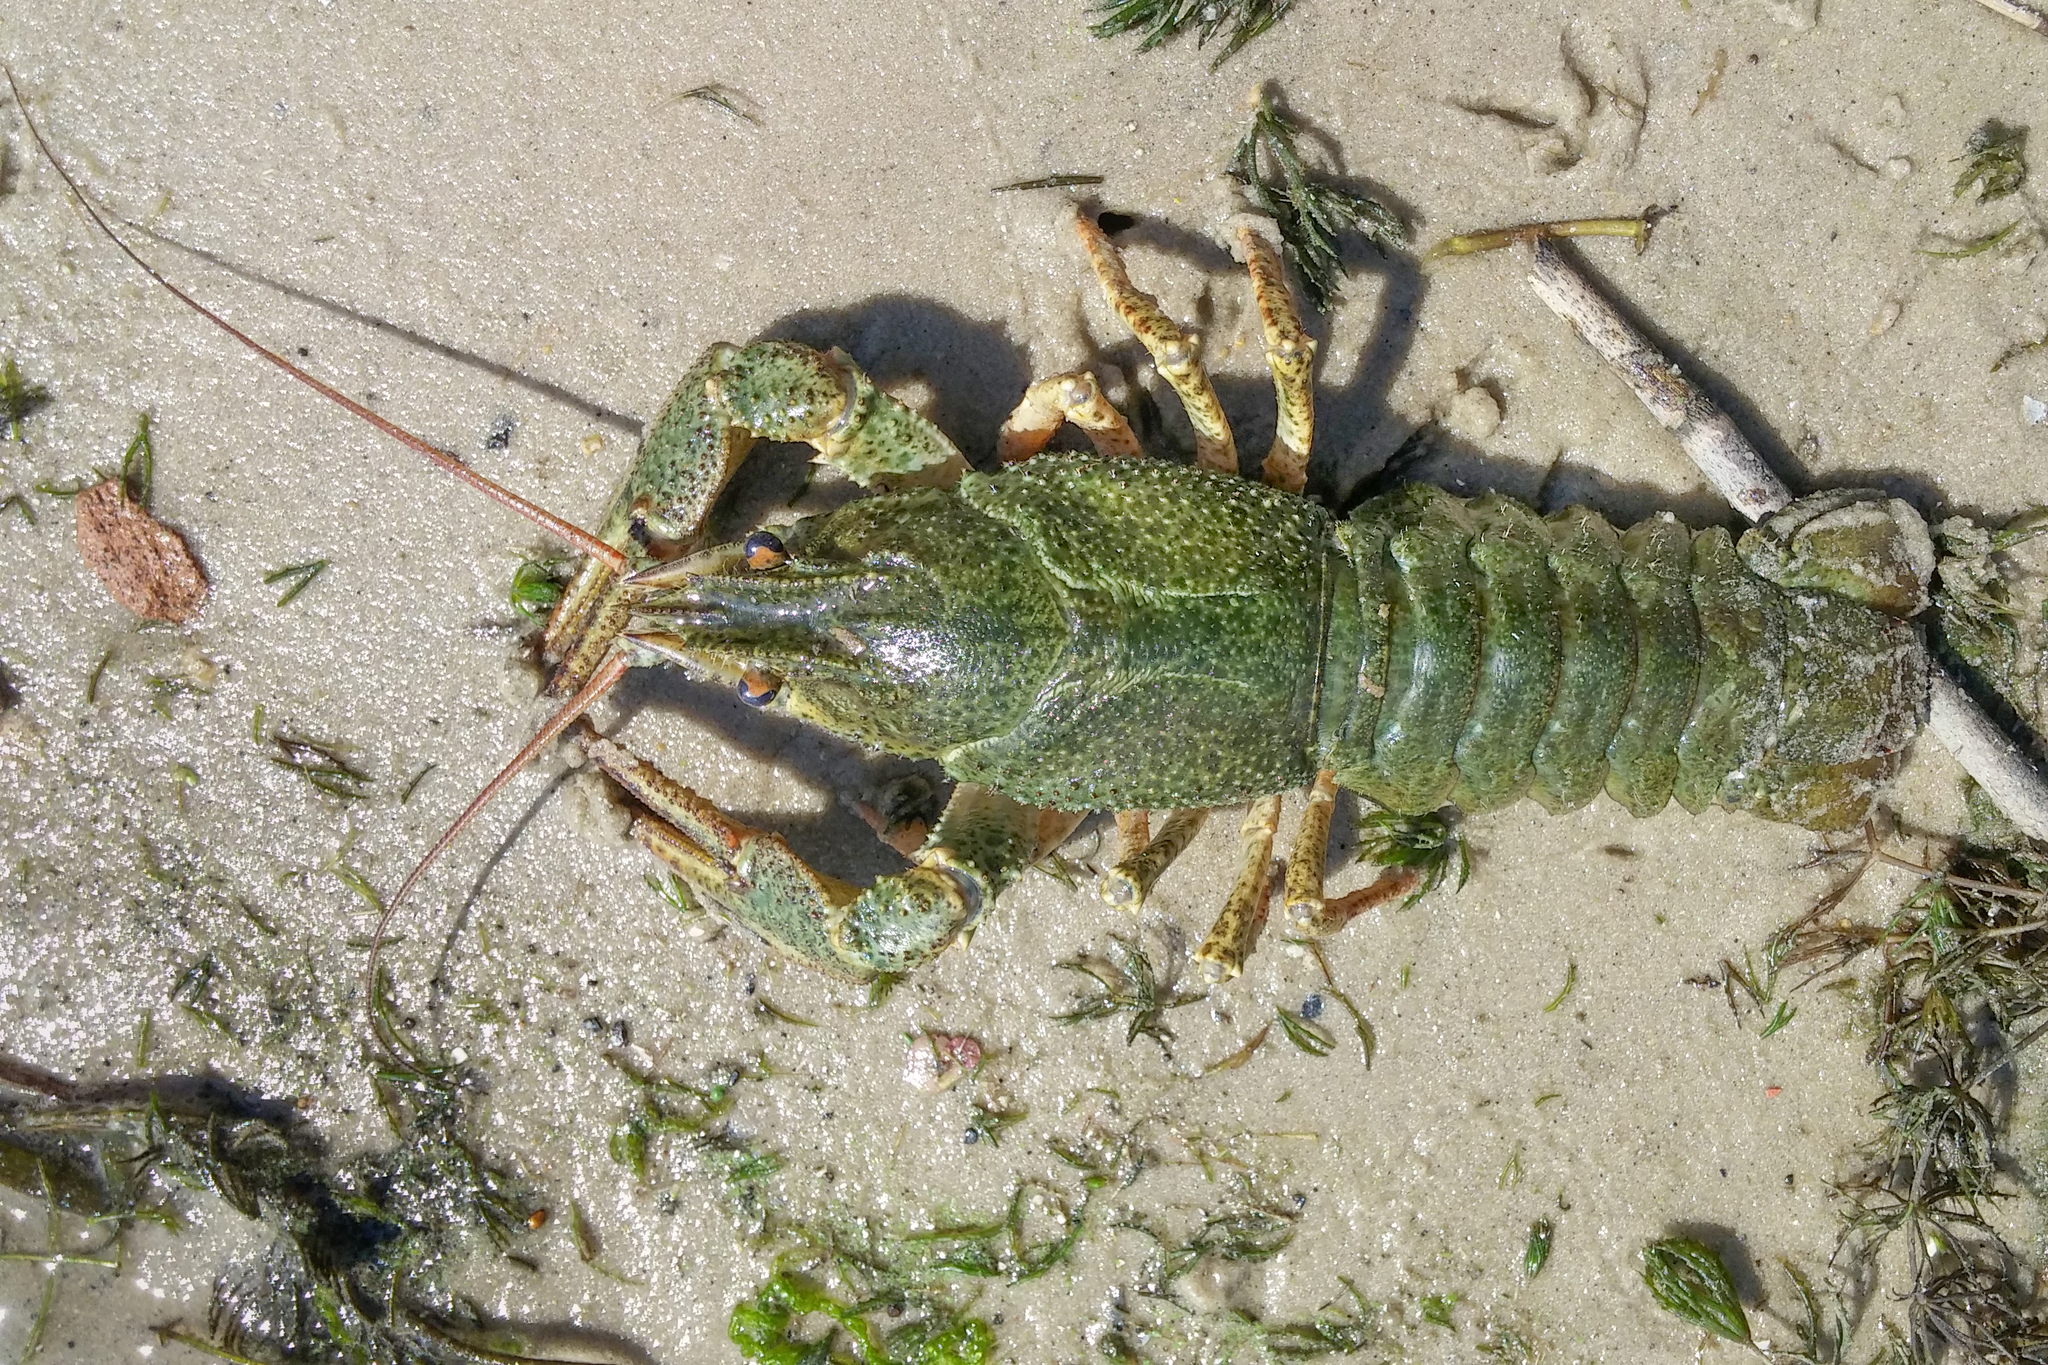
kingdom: Animalia
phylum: Arthropoda
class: Malacostraca
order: Decapoda
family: Astacidae
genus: Pontastacus
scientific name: Pontastacus leptodactylus
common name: Danube crayfish
